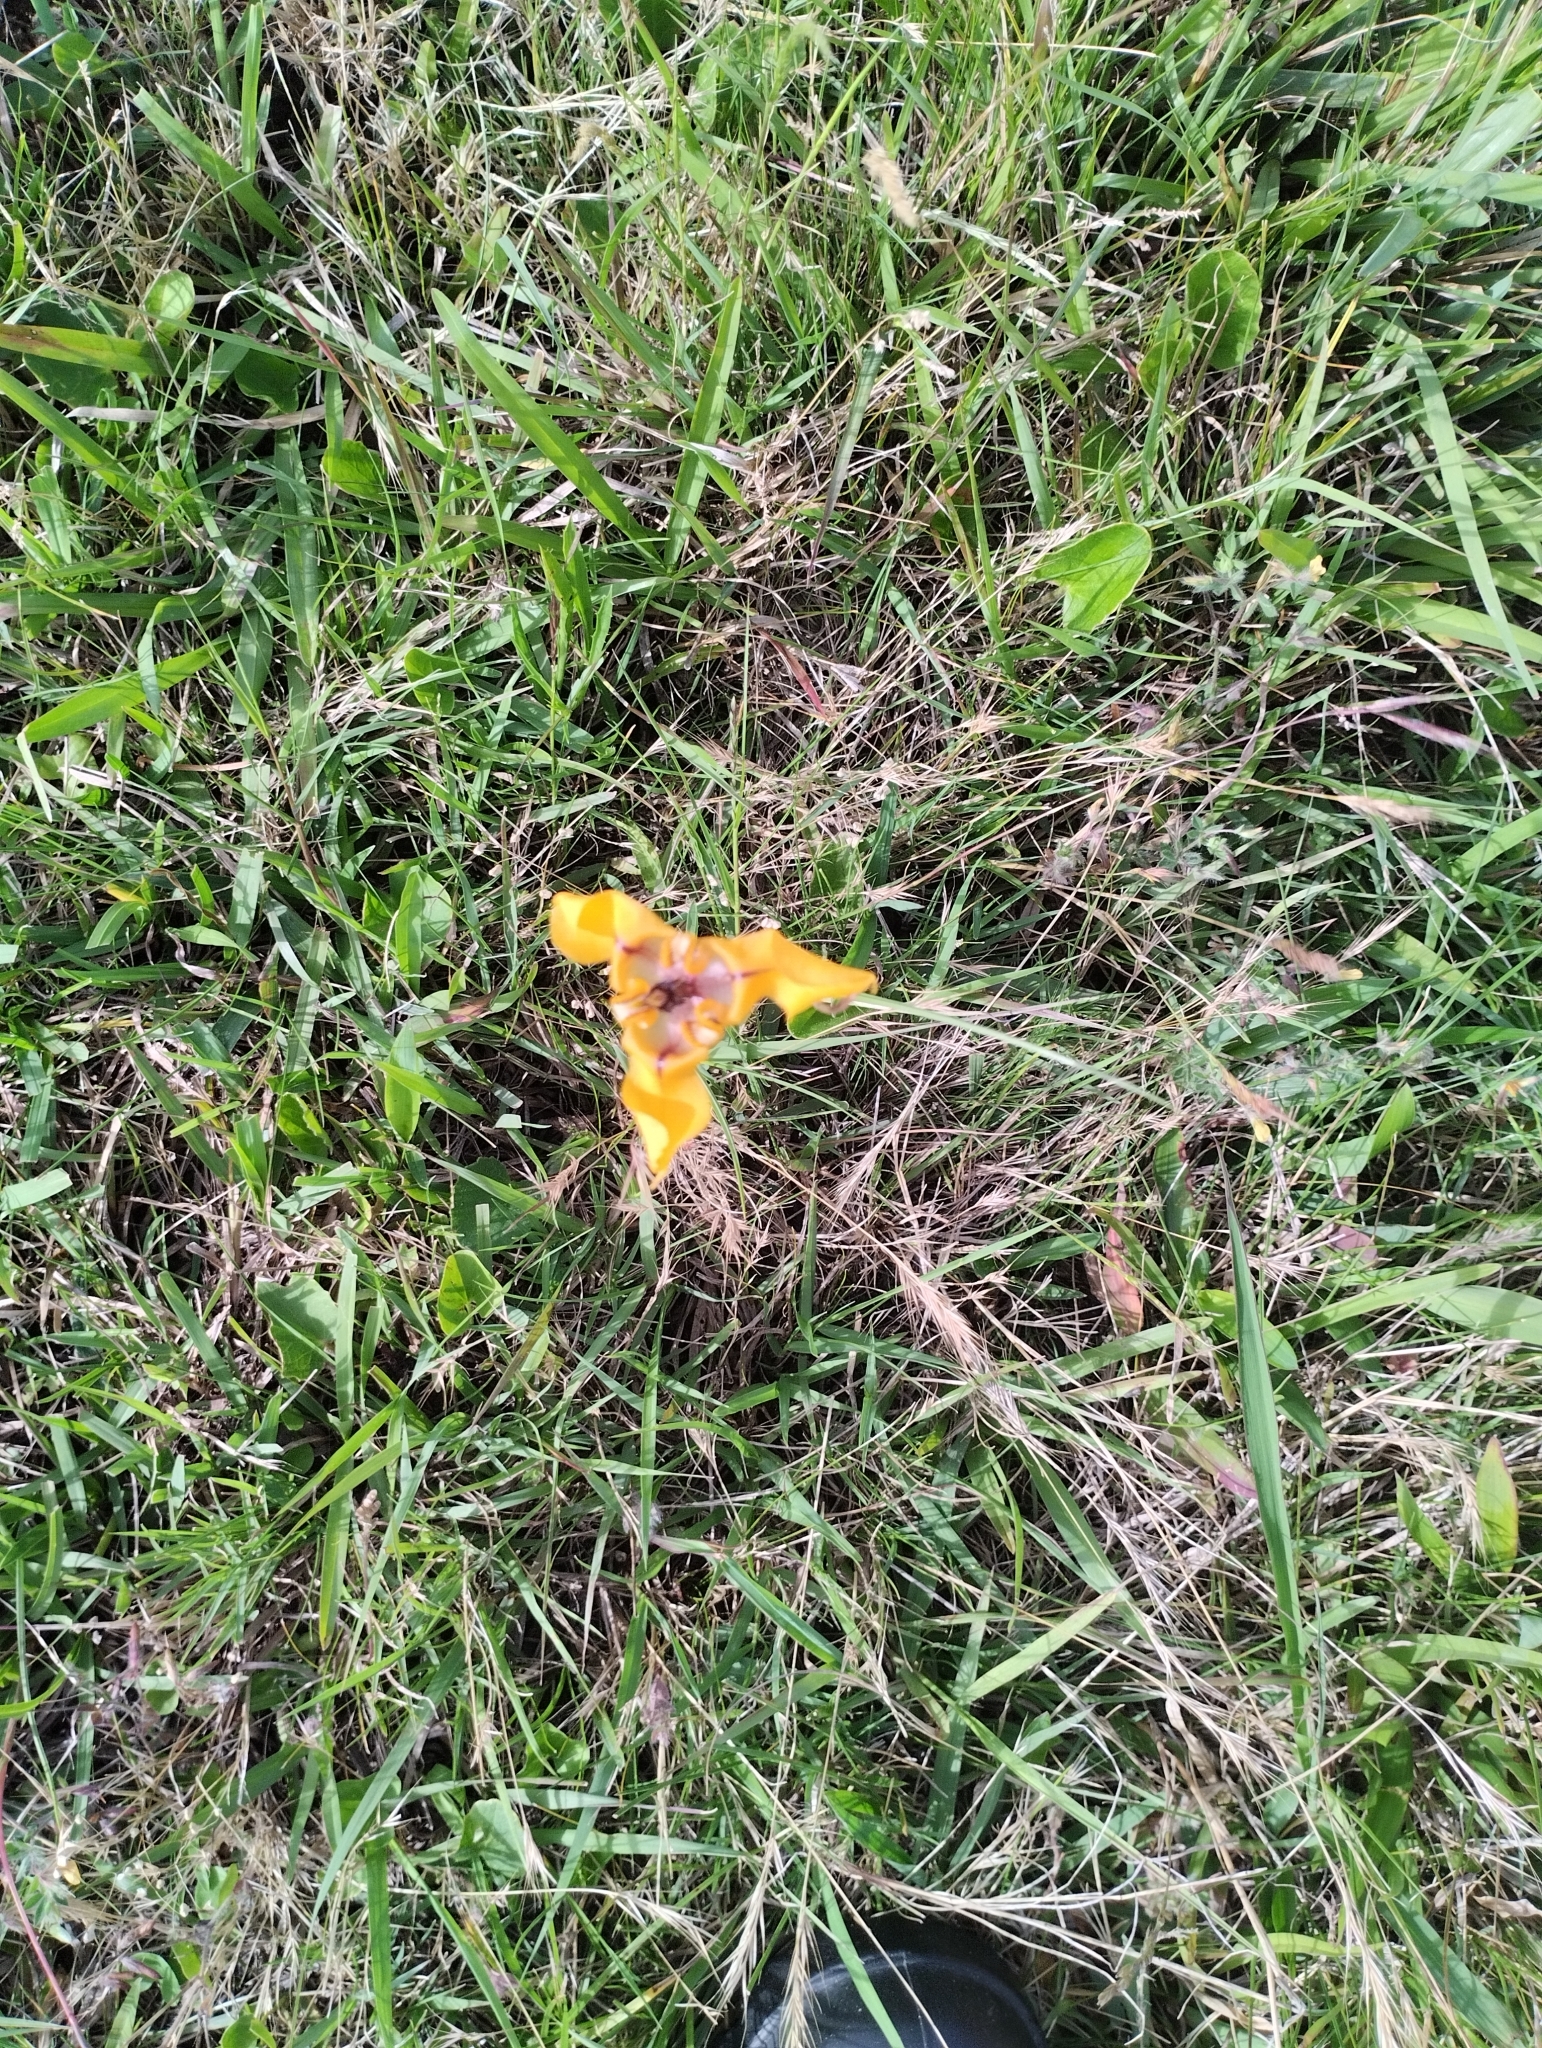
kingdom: Plantae
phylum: Tracheophyta
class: Liliopsida
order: Asparagales
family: Iridaceae
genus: Cypella
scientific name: Cypella herbertii
